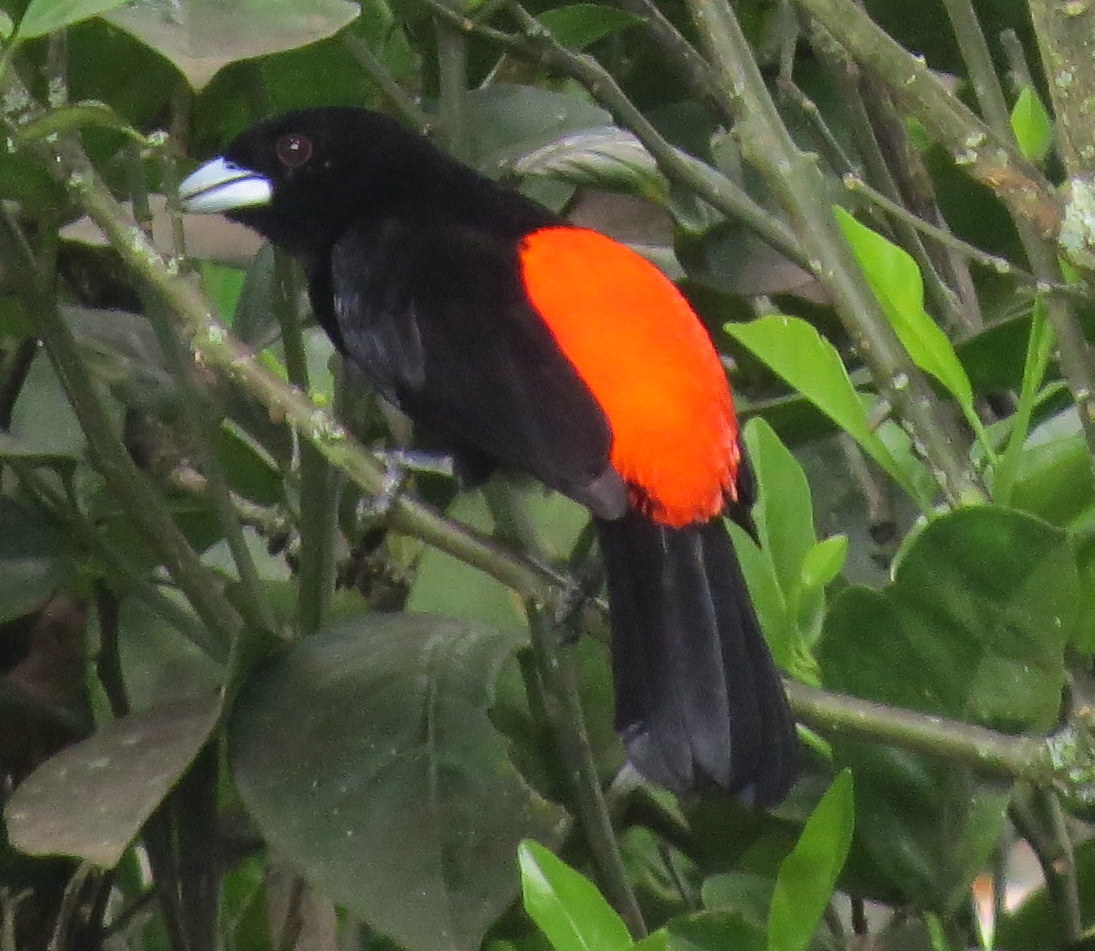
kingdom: Animalia
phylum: Chordata
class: Aves
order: Passeriformes
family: Thraupidae
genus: Ramphocelus
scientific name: Ramphocelus flammigerus
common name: Flame-rumped tanager
